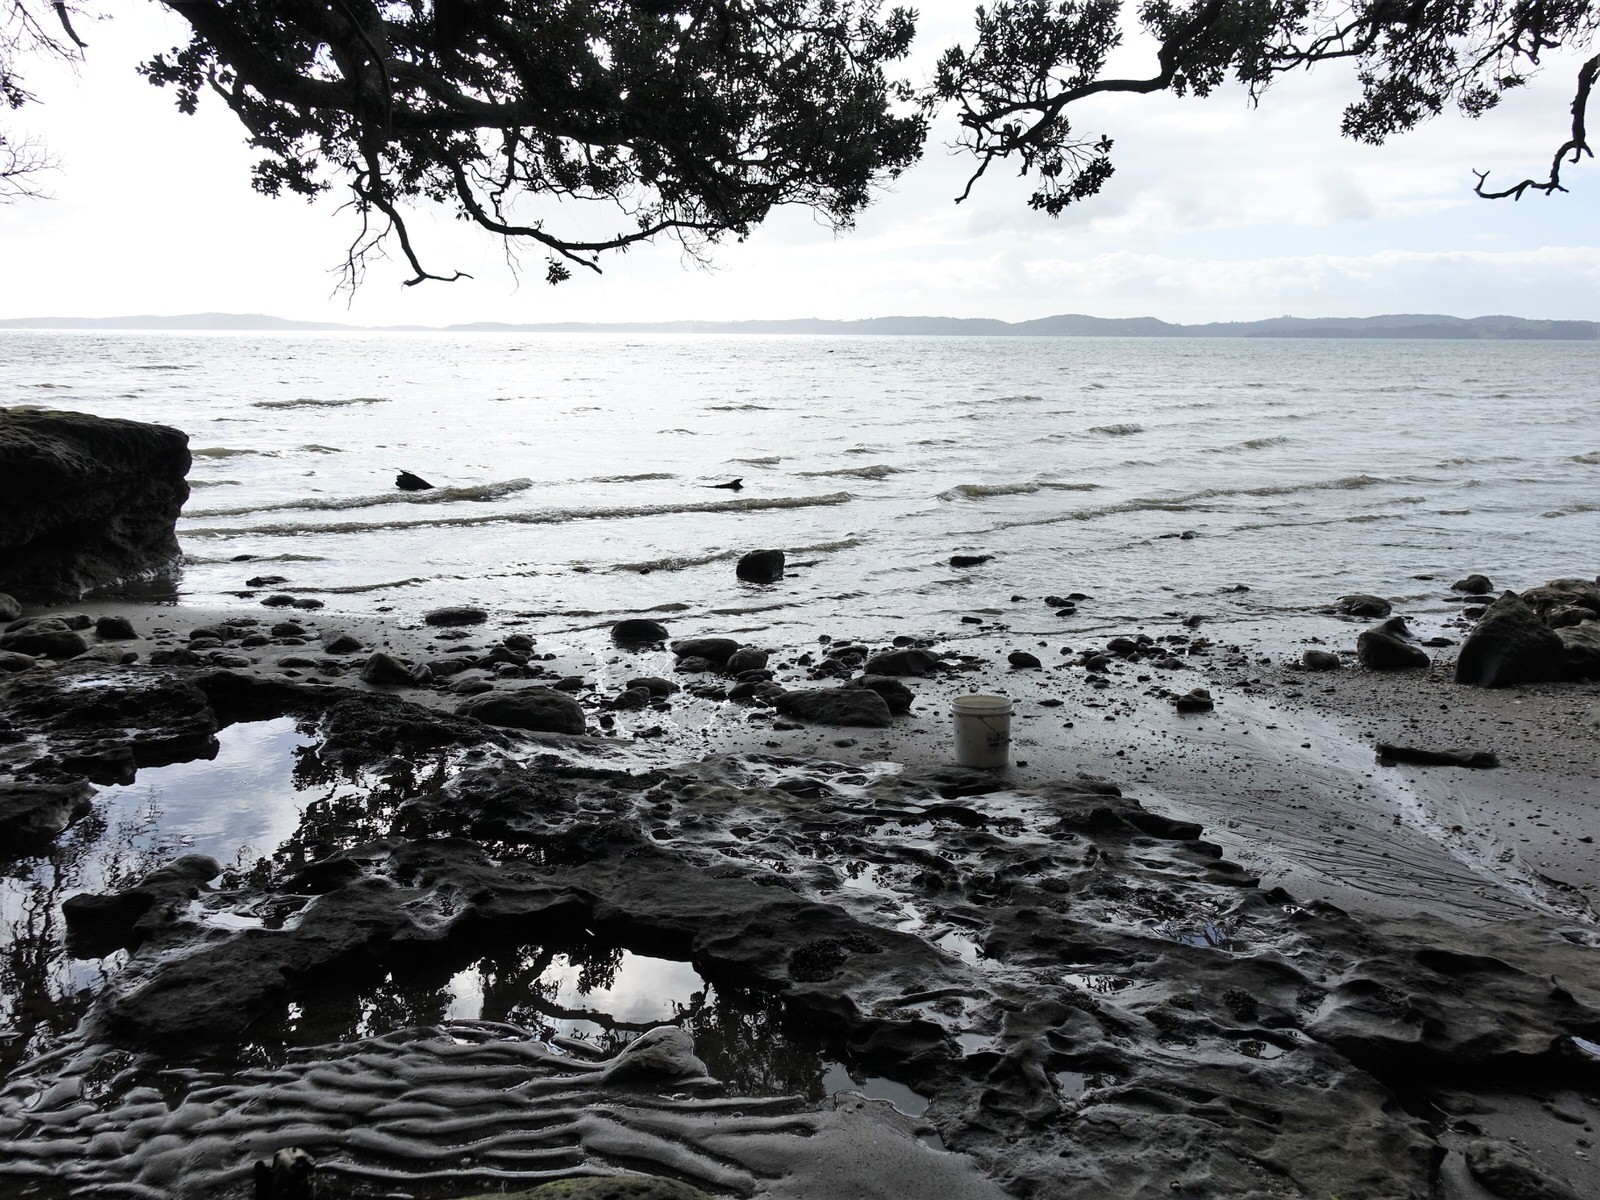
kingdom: Plantae
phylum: Chlorophyta
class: Ulvophyceae
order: Bryopsidales
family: Codiaceae
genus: Codium
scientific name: Codium fragile
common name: Dead man's fingers
